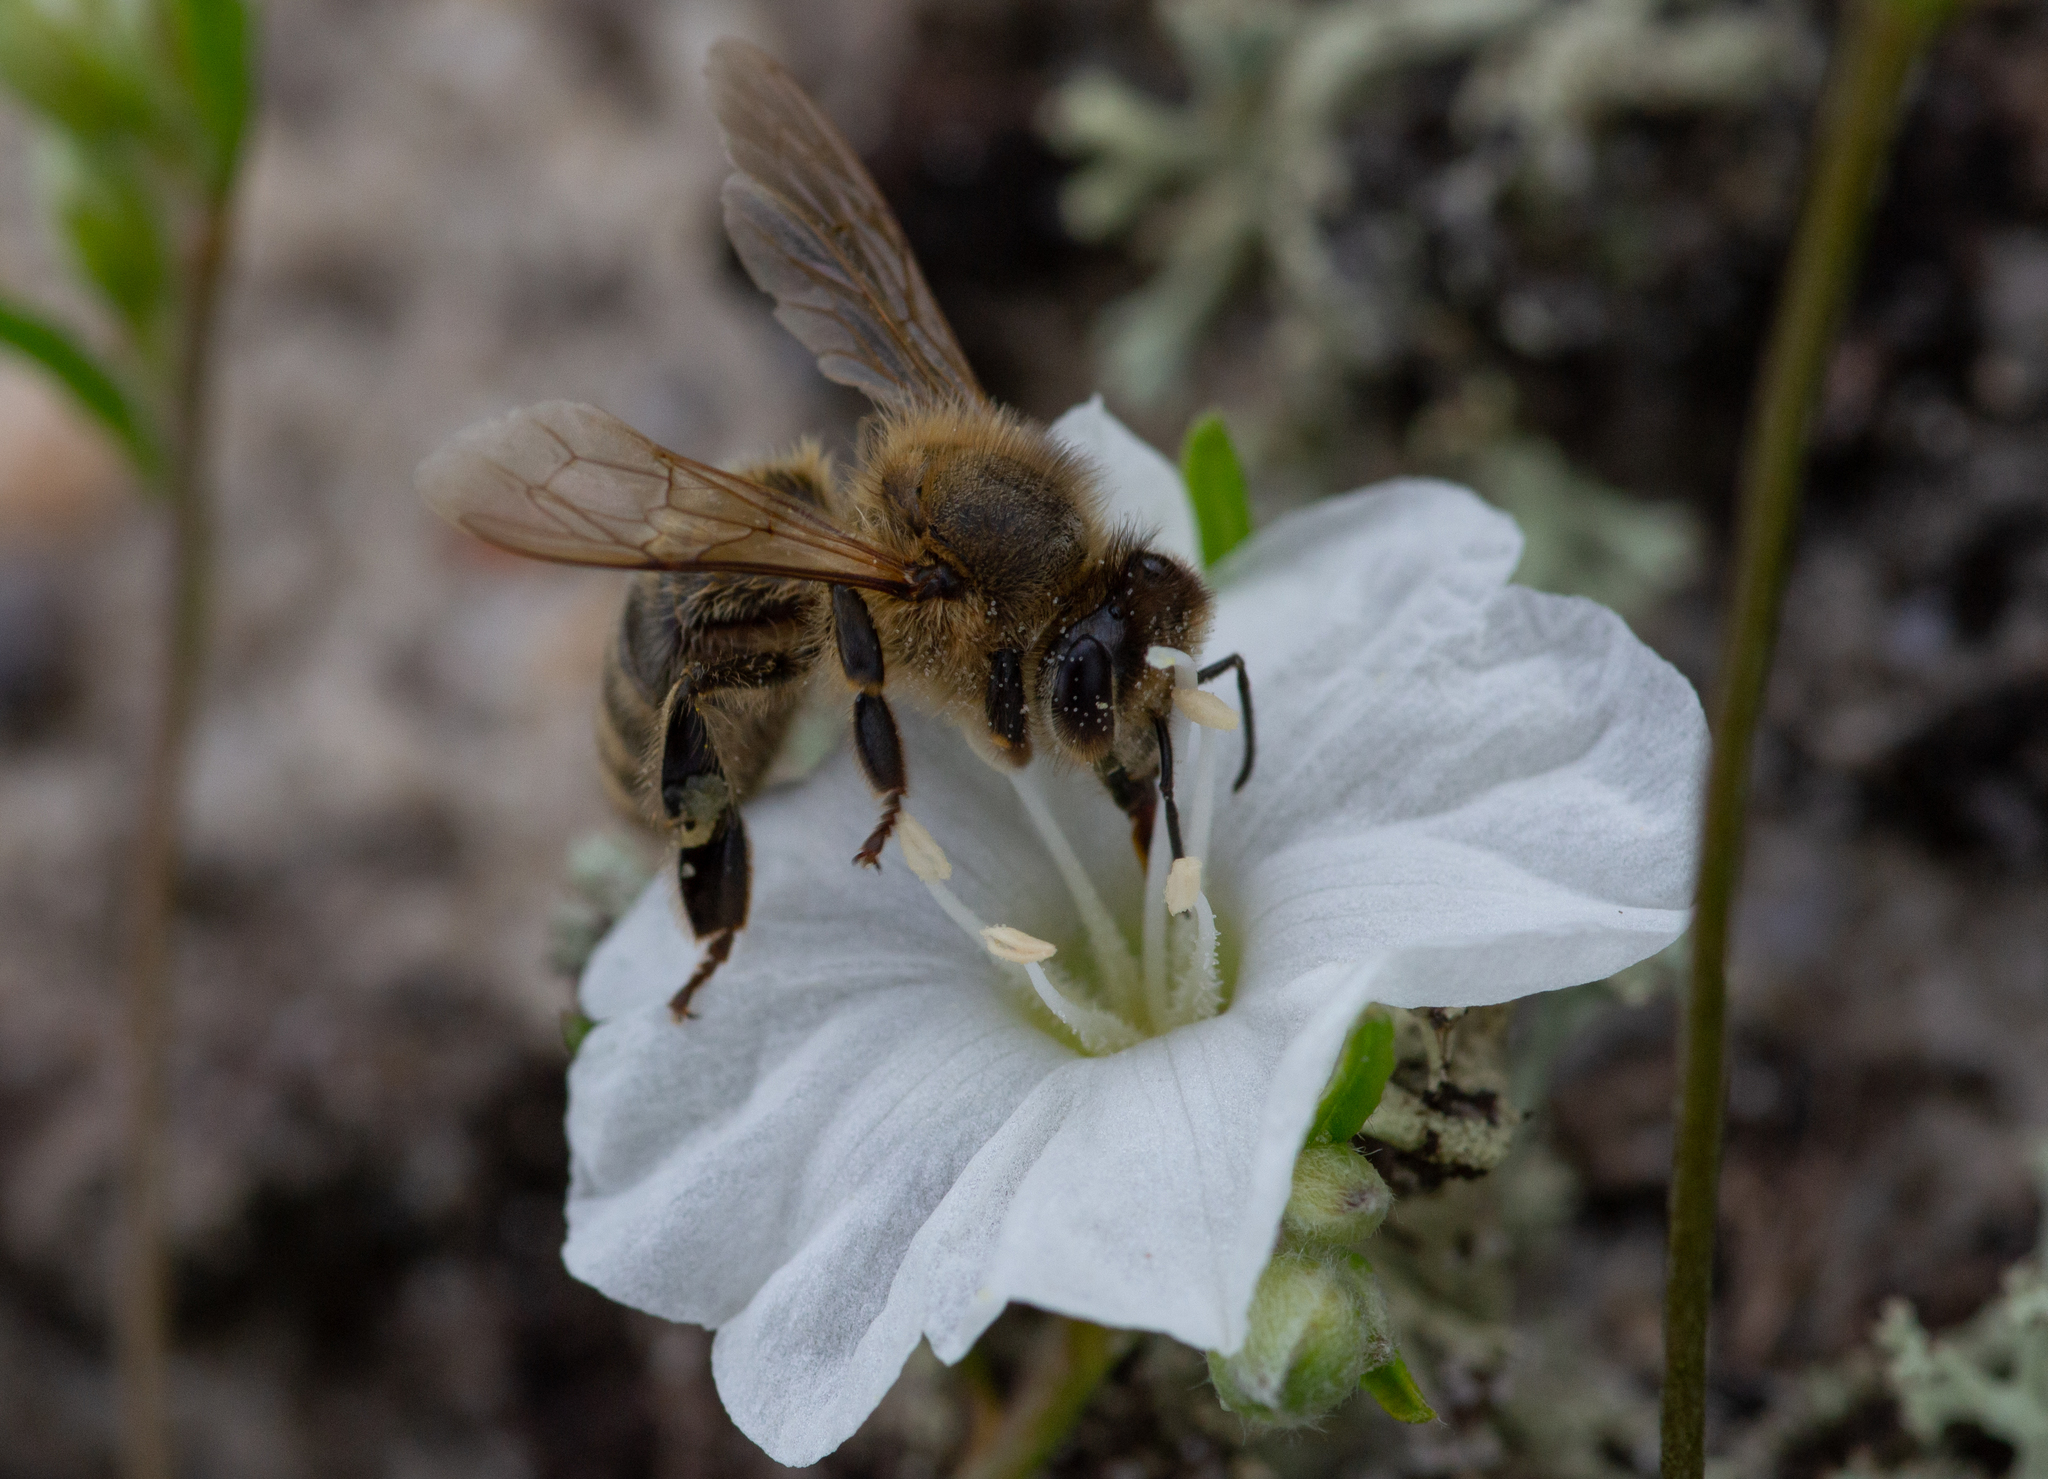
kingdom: Animalia
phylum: Arthropoda
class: Insecta
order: Hymenoptera
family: Apidae
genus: Apis
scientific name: Apis mellifera
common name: Honey bee
